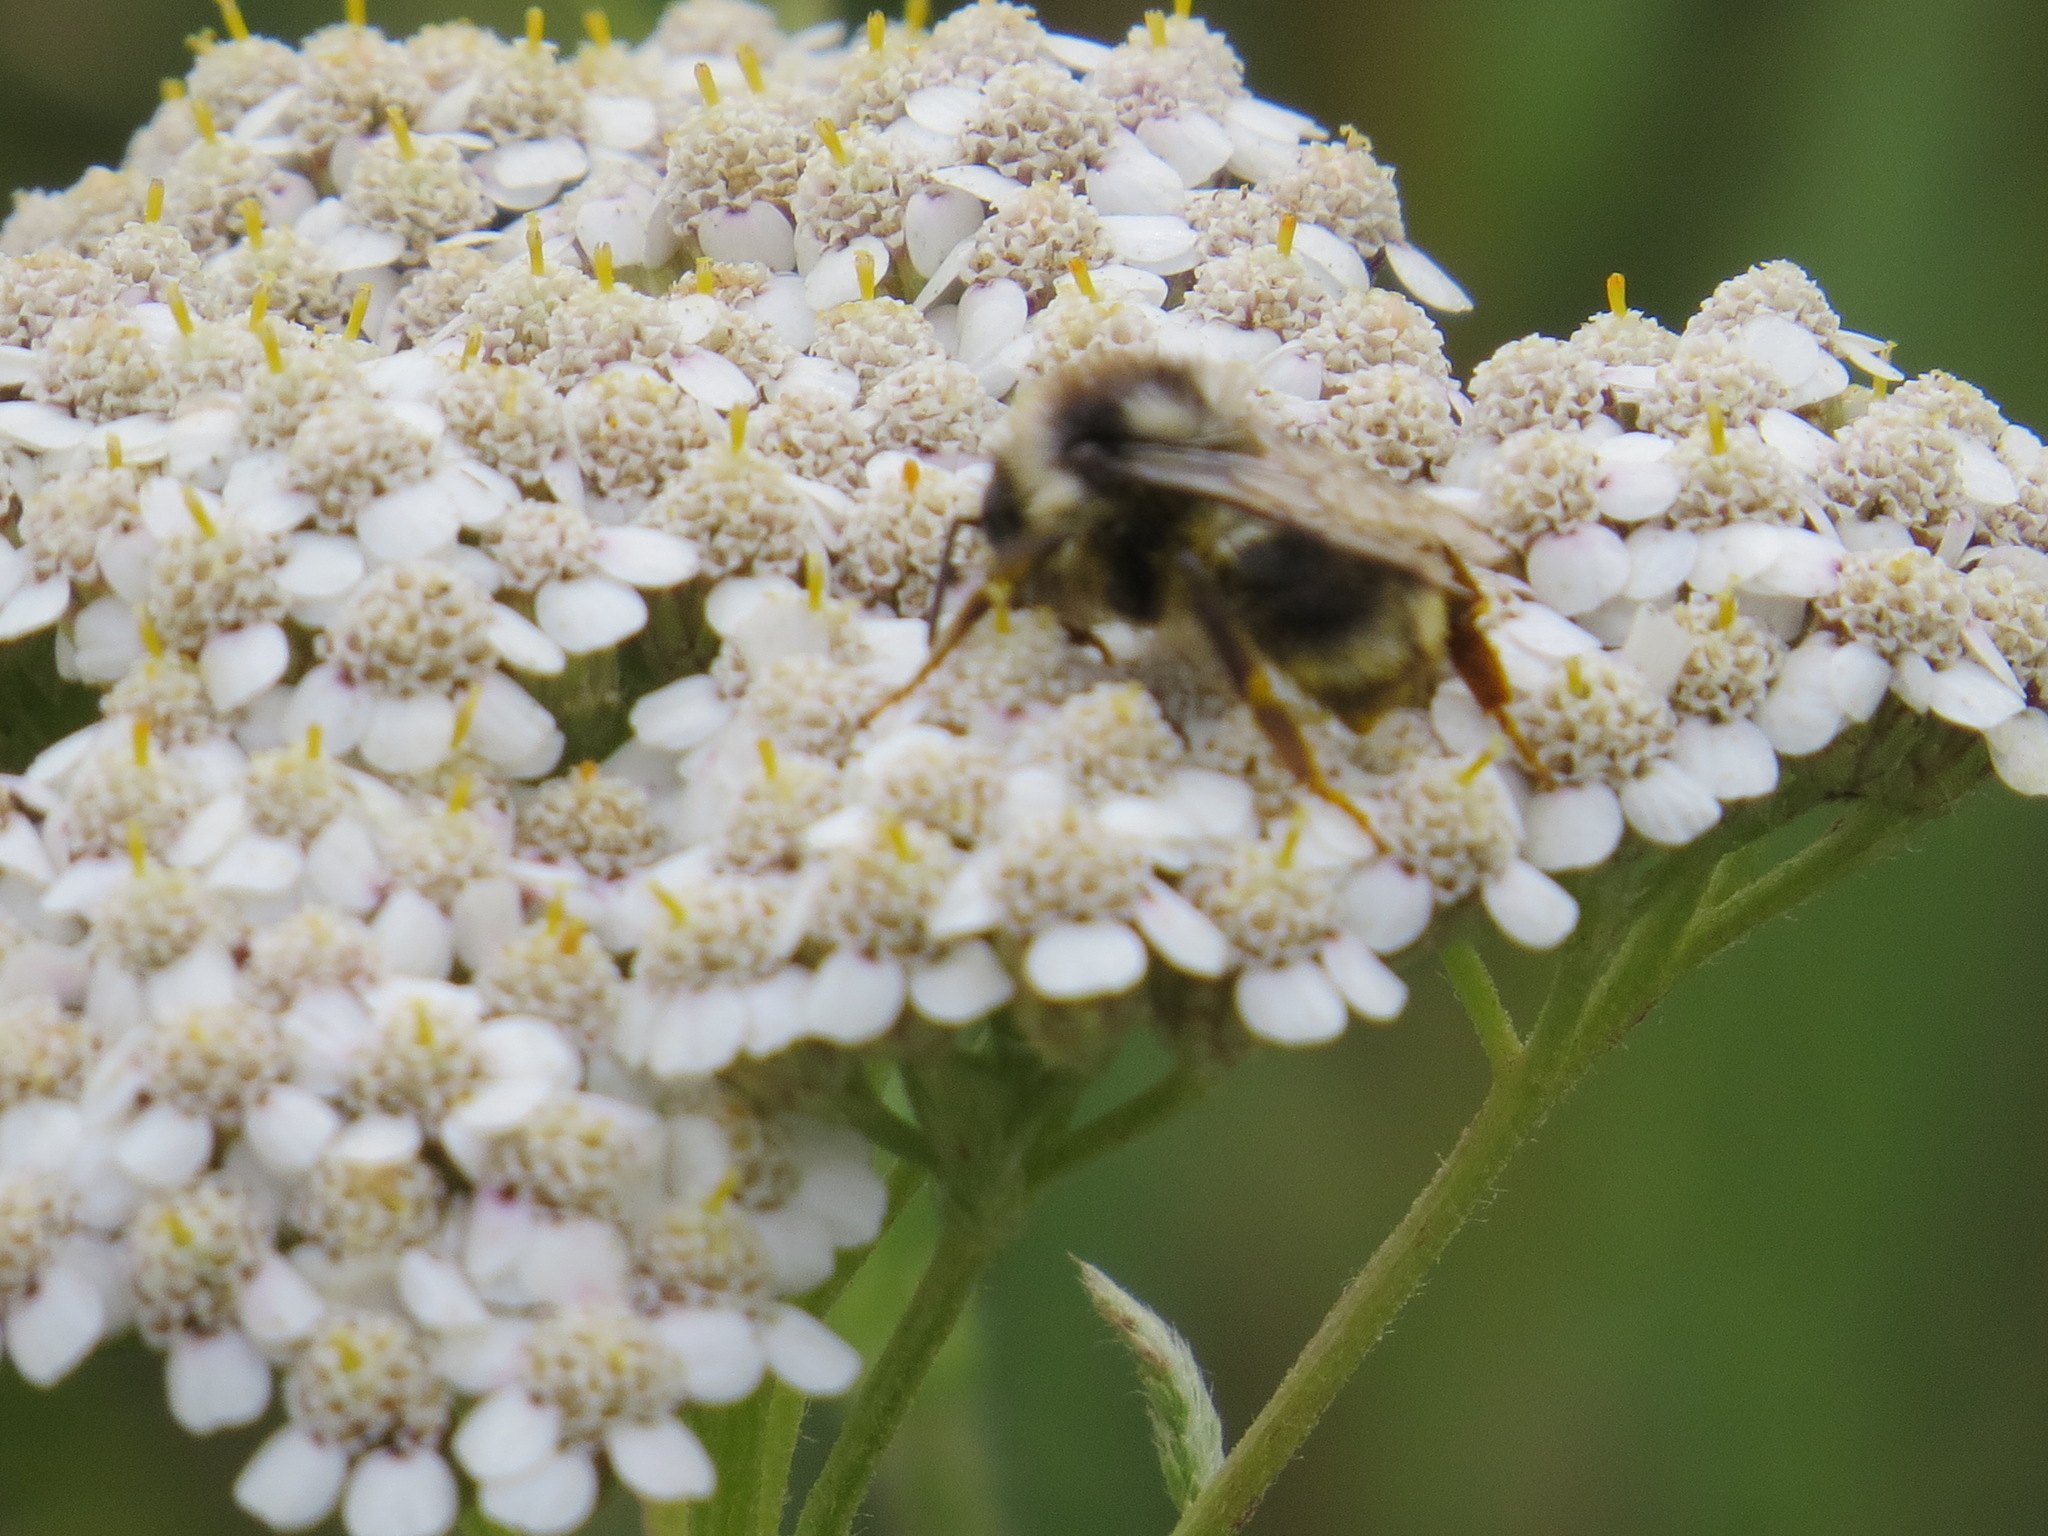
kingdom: Animalia
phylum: Arthropoda
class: Insecta
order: Hymenoptera
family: Apidae
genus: Bombus
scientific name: Bombus vancouverensis
